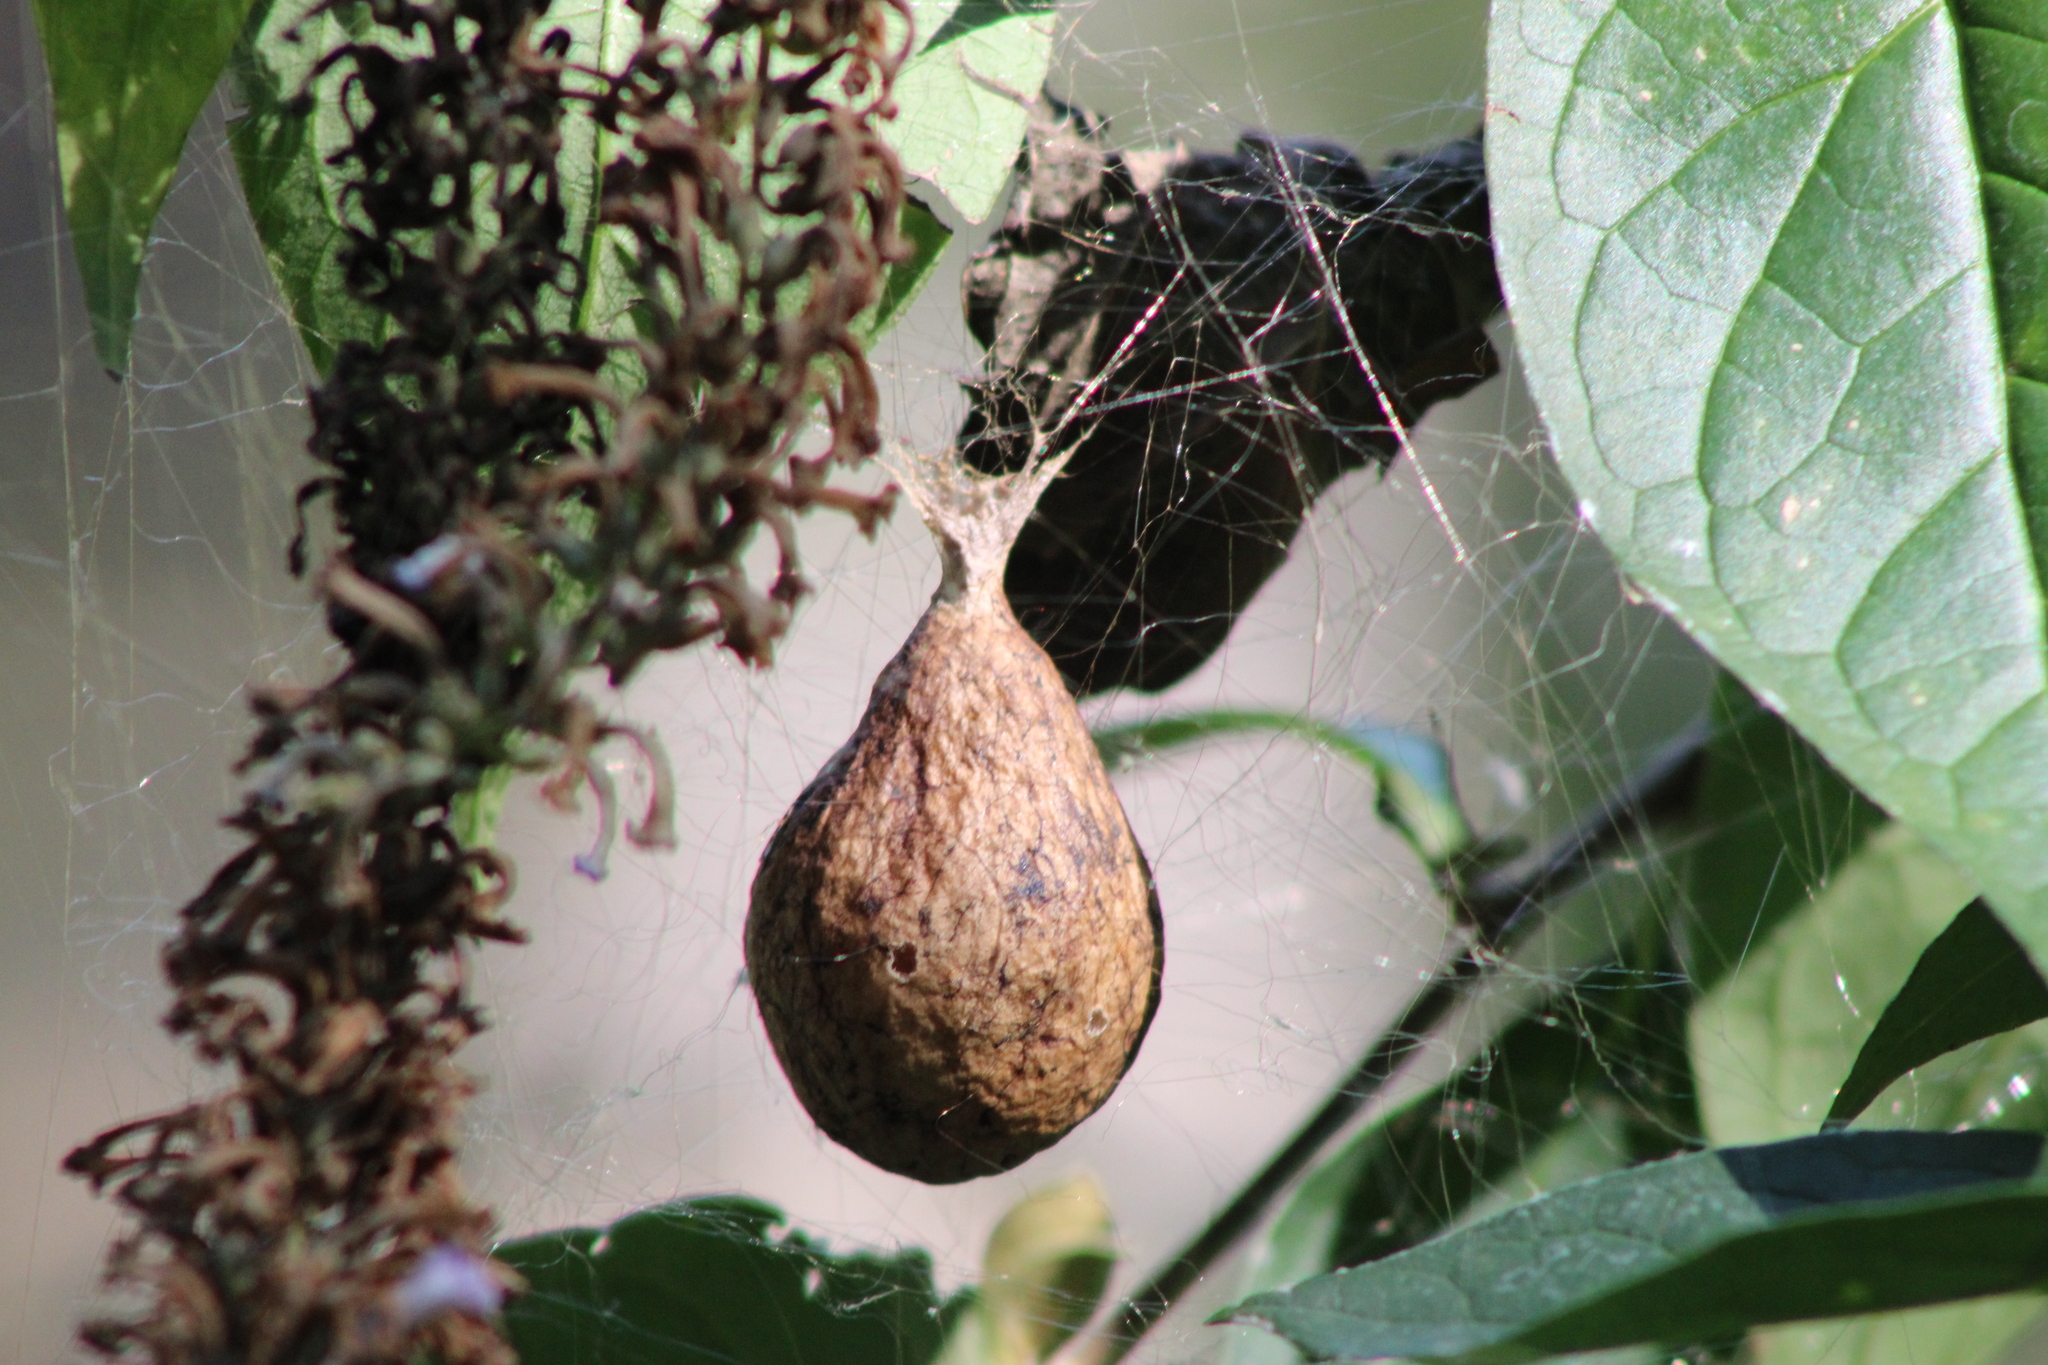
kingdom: Animalia
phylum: Arthropoda
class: Arachnida
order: Araneae
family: Araneidae
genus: Argiope
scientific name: Argiope aurantia
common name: Orb weavers
